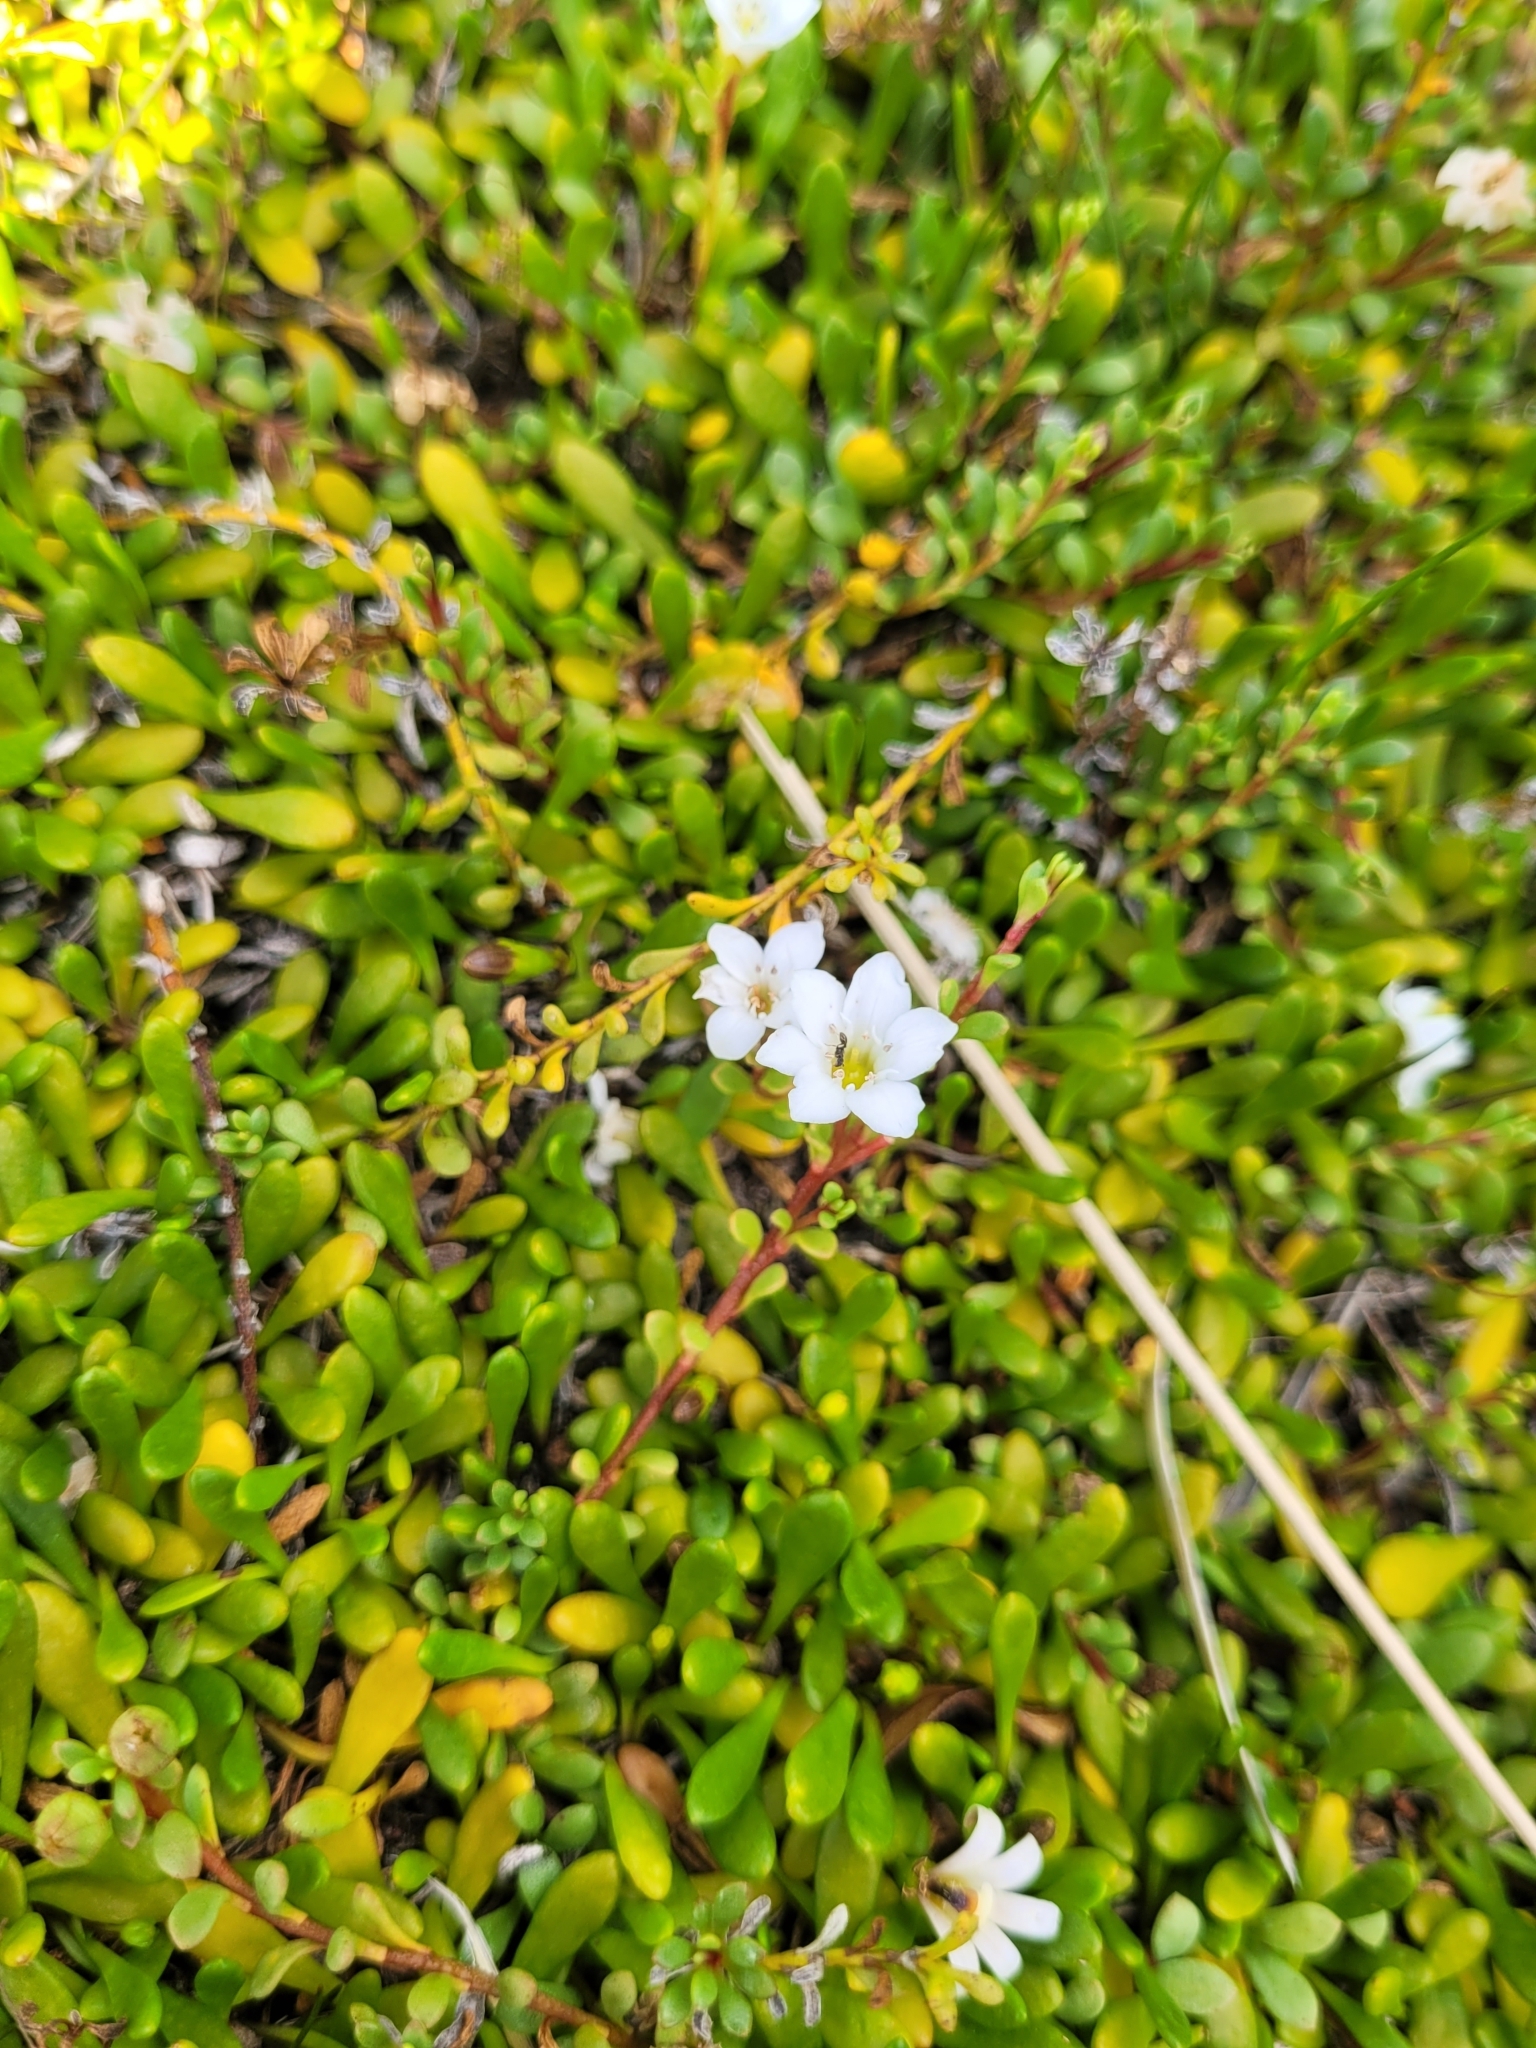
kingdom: Plantae
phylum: Tracheophyta
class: Magnoliopsida
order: Ericales
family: Primulaceae
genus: Samolus
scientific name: Samolus repens
